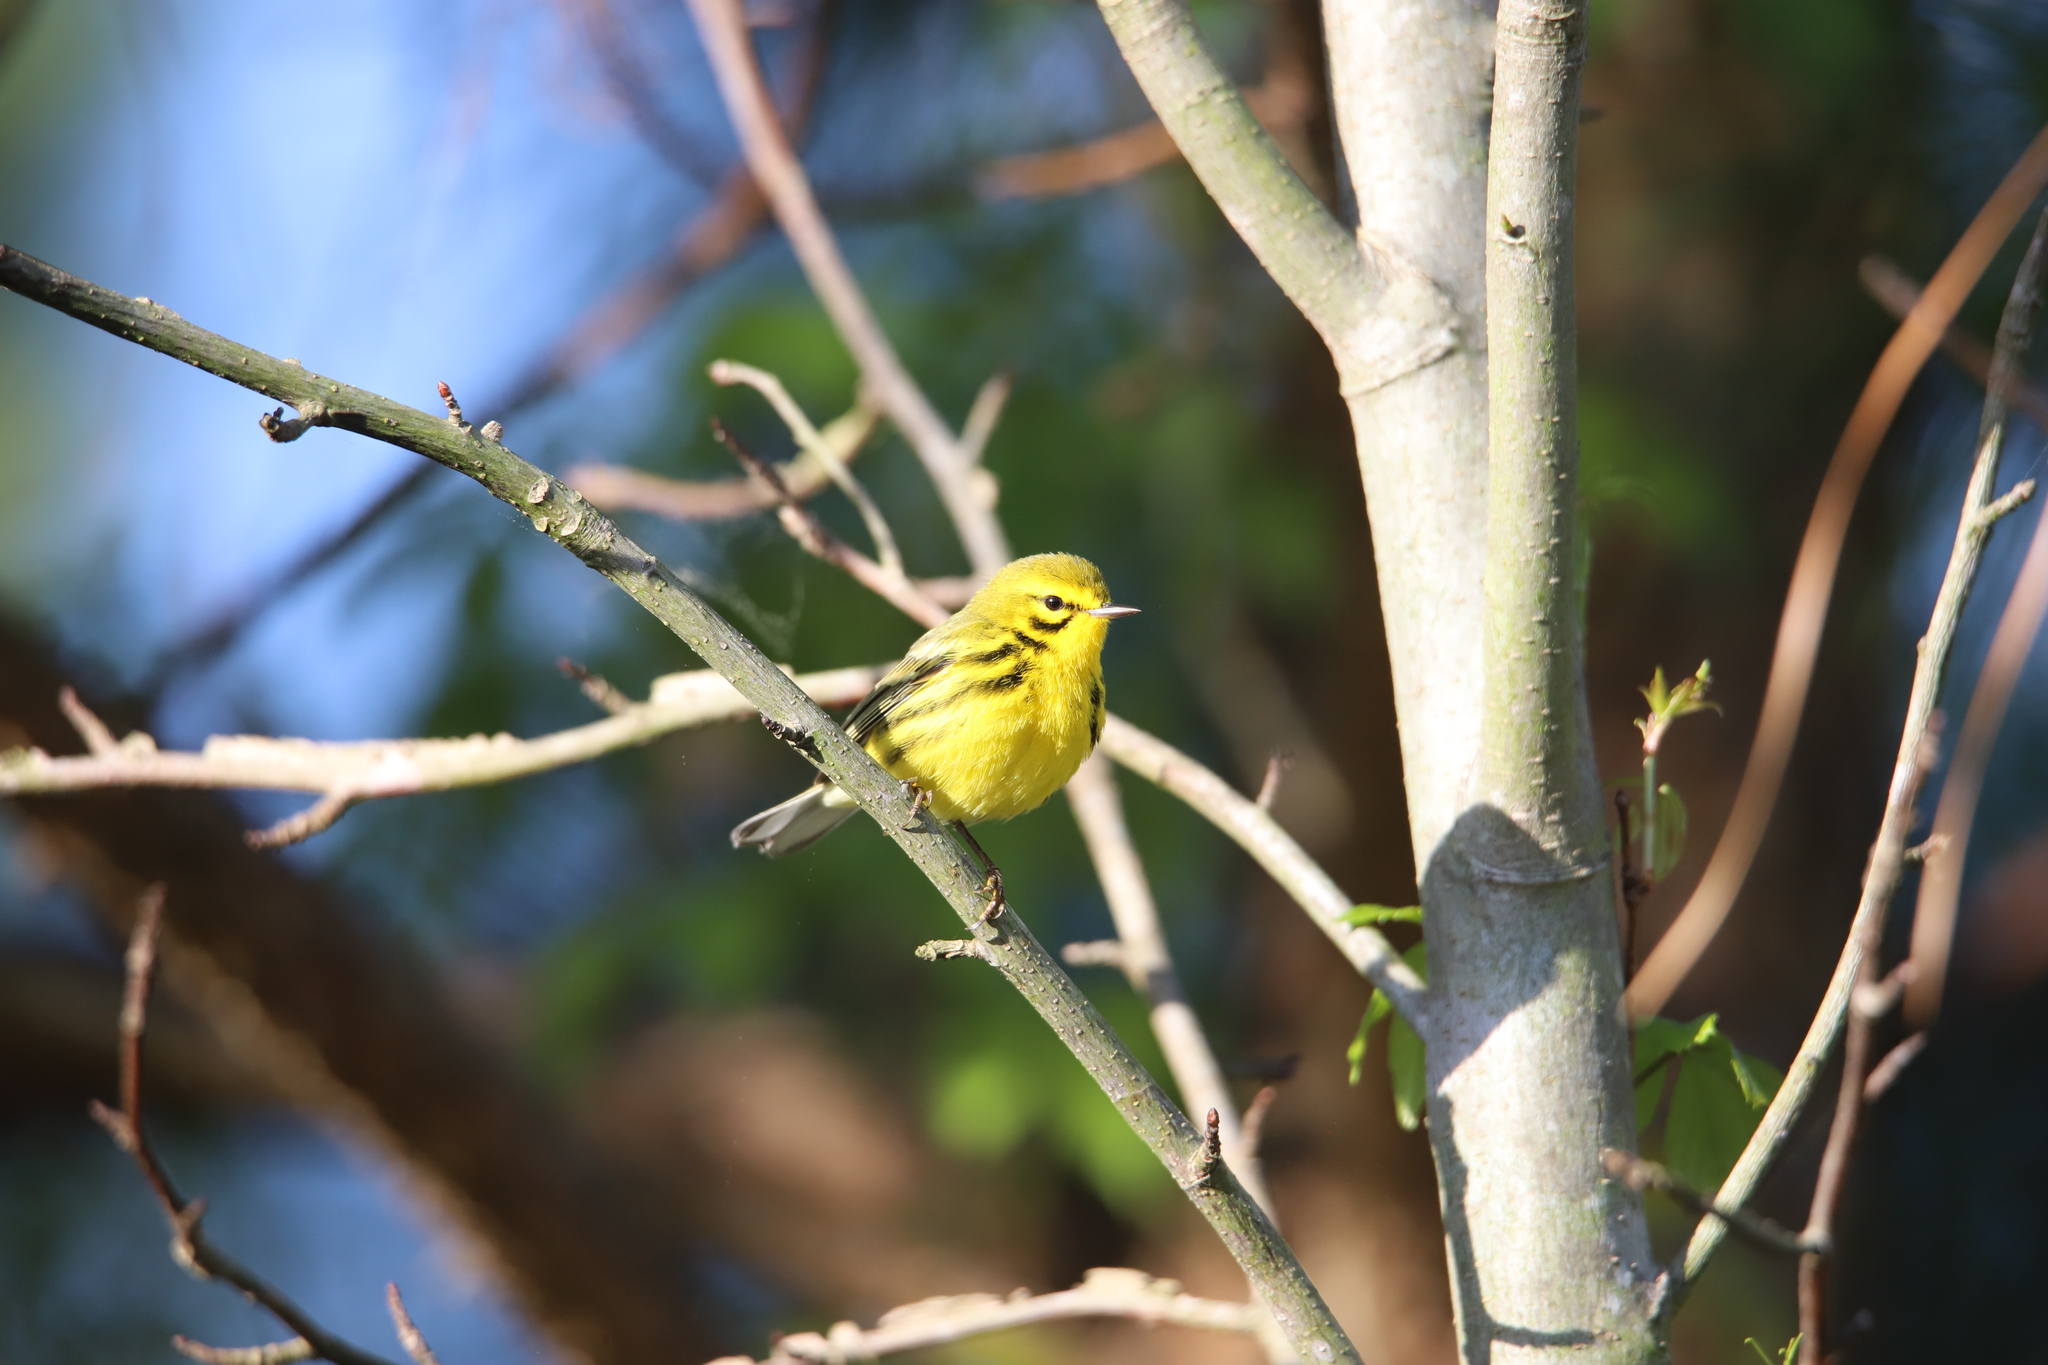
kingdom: Animalia
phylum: Chordata
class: Aves
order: Passeriformes
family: Parulidae
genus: Setophaga
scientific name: Setophaga discolor
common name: Prairie warbler
